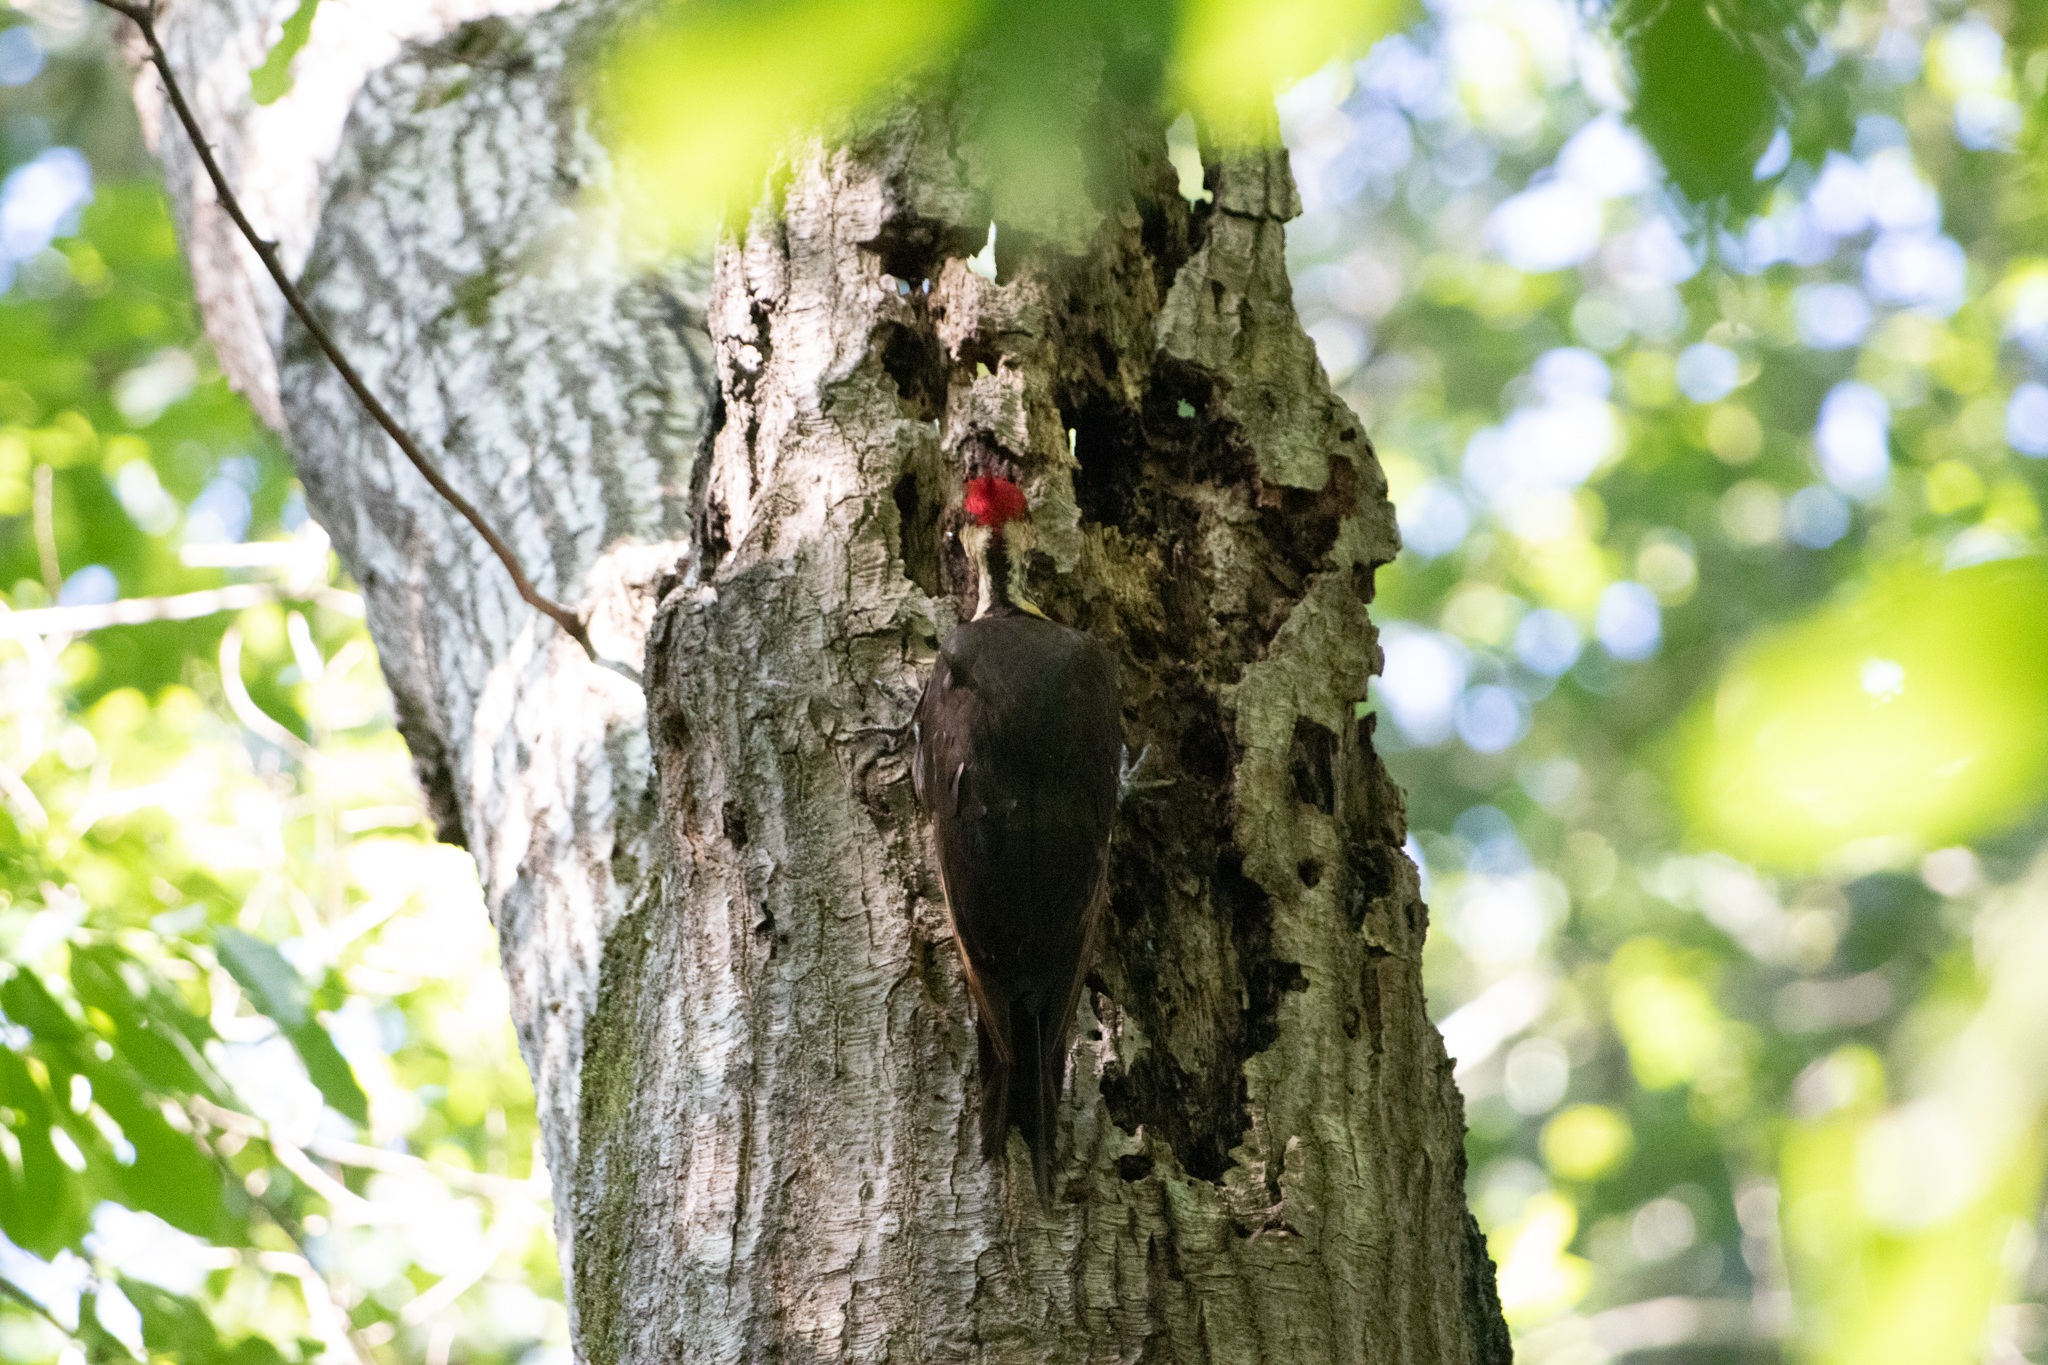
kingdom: Animalia
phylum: Chordata
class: Aves
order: Piciformes
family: Picidae
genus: Dryocopus
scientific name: Dryocopus pileatus
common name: Pileated woodpecker
